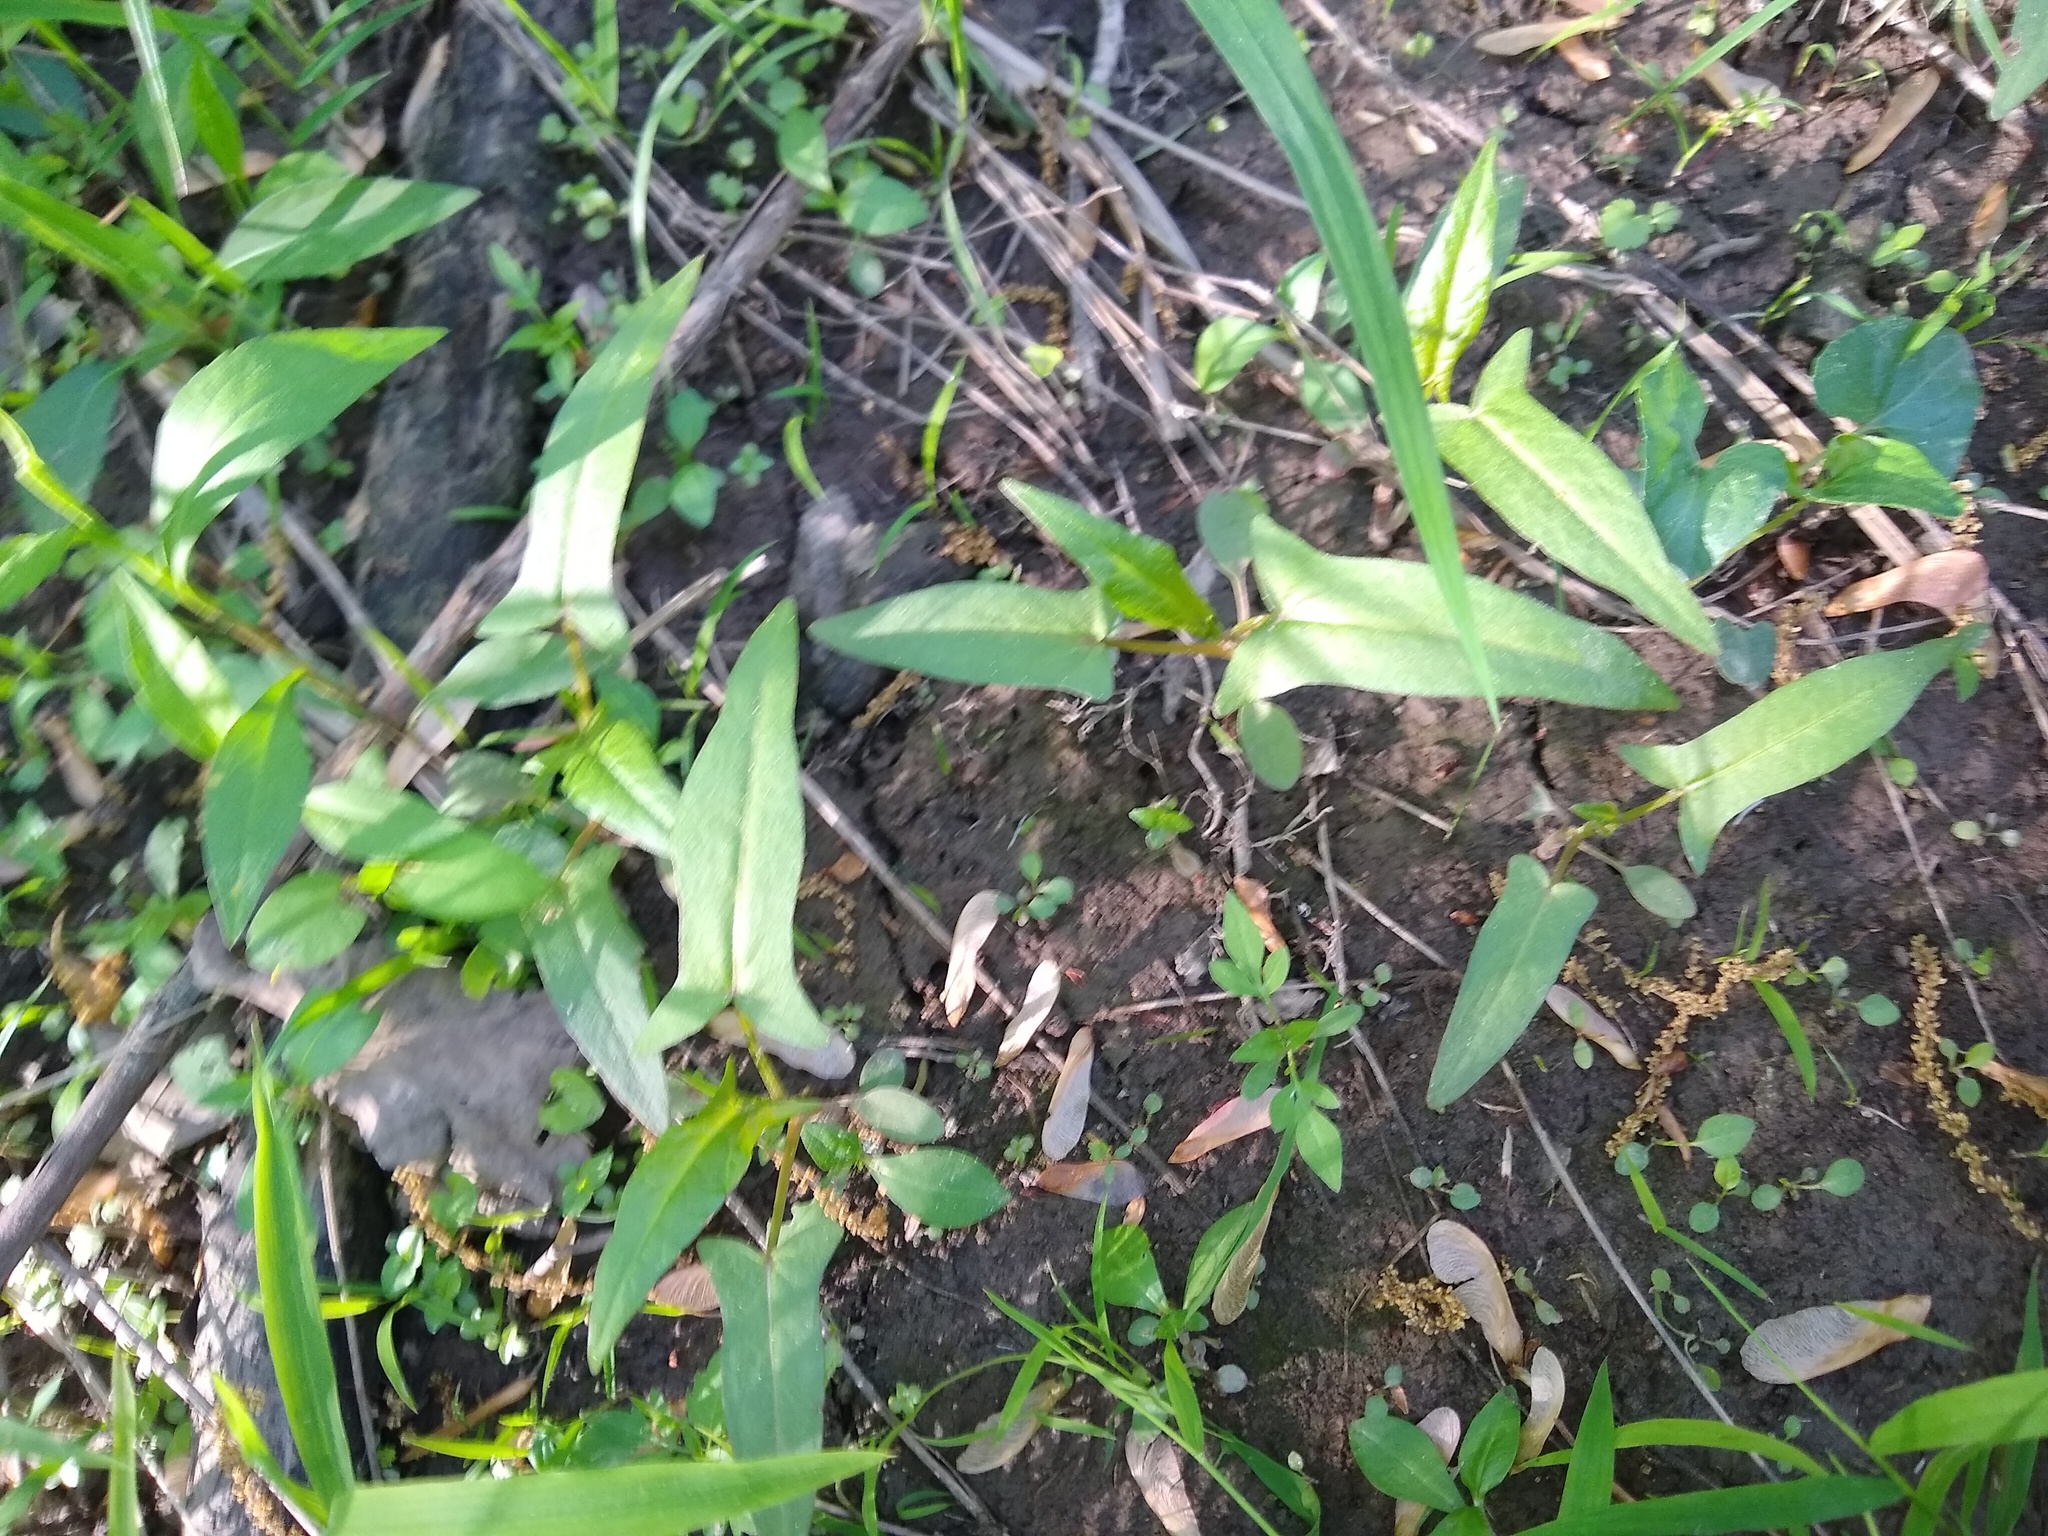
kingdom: Plantae
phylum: Tracheophyta
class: Magnoliopsida
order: Caryophyllales
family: Polygonaceae
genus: Persicaria
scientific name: Persicaria arifolia
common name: Halberd-leaved tear-thumb
